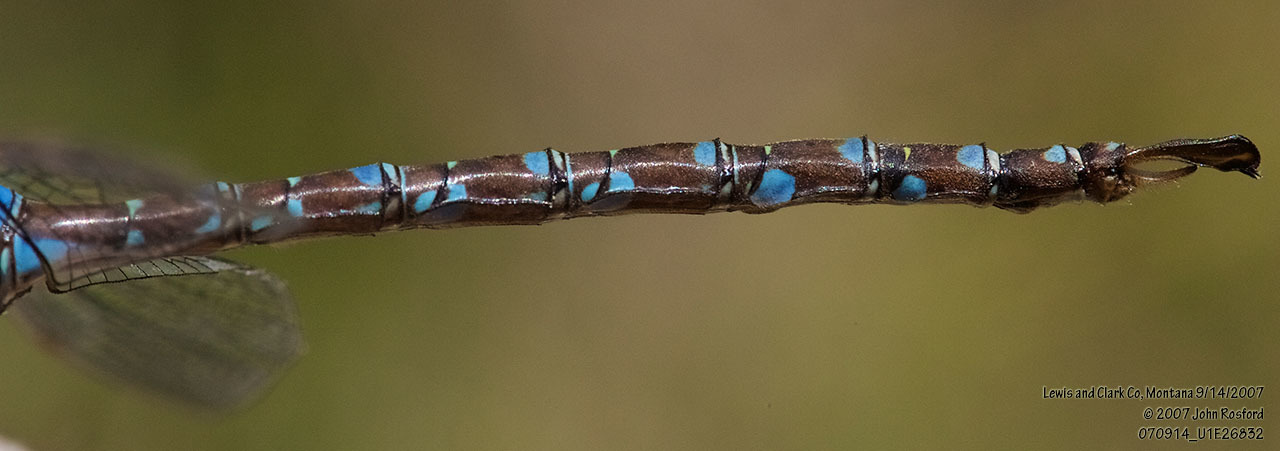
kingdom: Animalia
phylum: Arthropoda
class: Insecta
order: Odonata
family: Aeshnidae
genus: Aeshna
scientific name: Aeshna umbrosa
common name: Shadow darner
